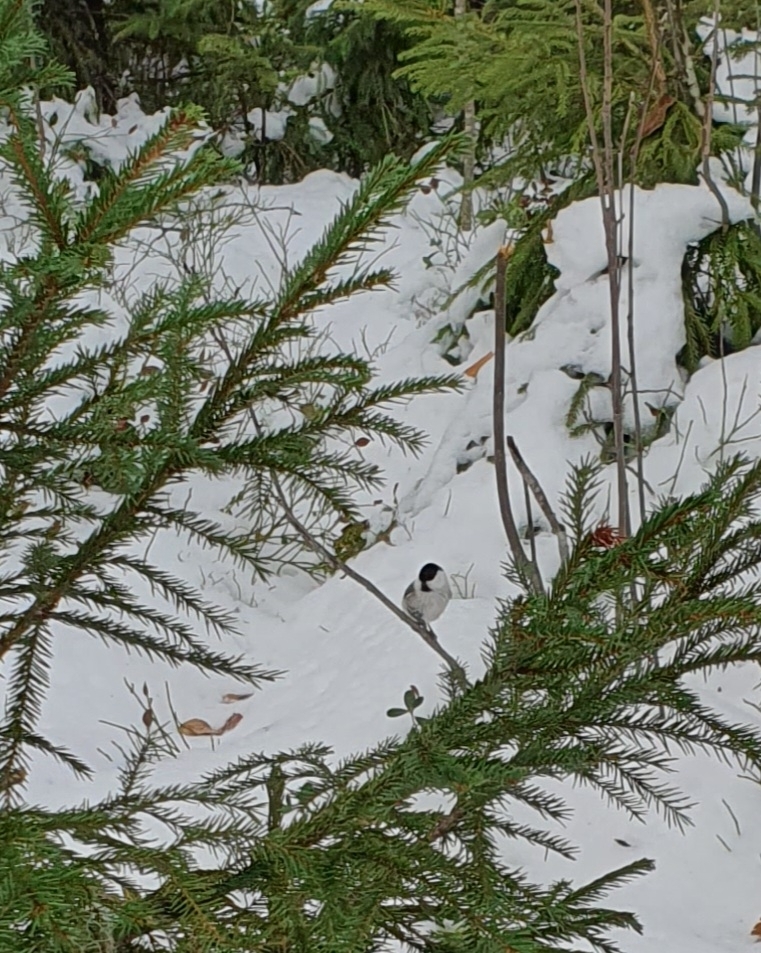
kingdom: Animalia
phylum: Chordata
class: Aves
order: Passeriformes
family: Paridae
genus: Poecile
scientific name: Poecile montanus
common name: Willow tit
